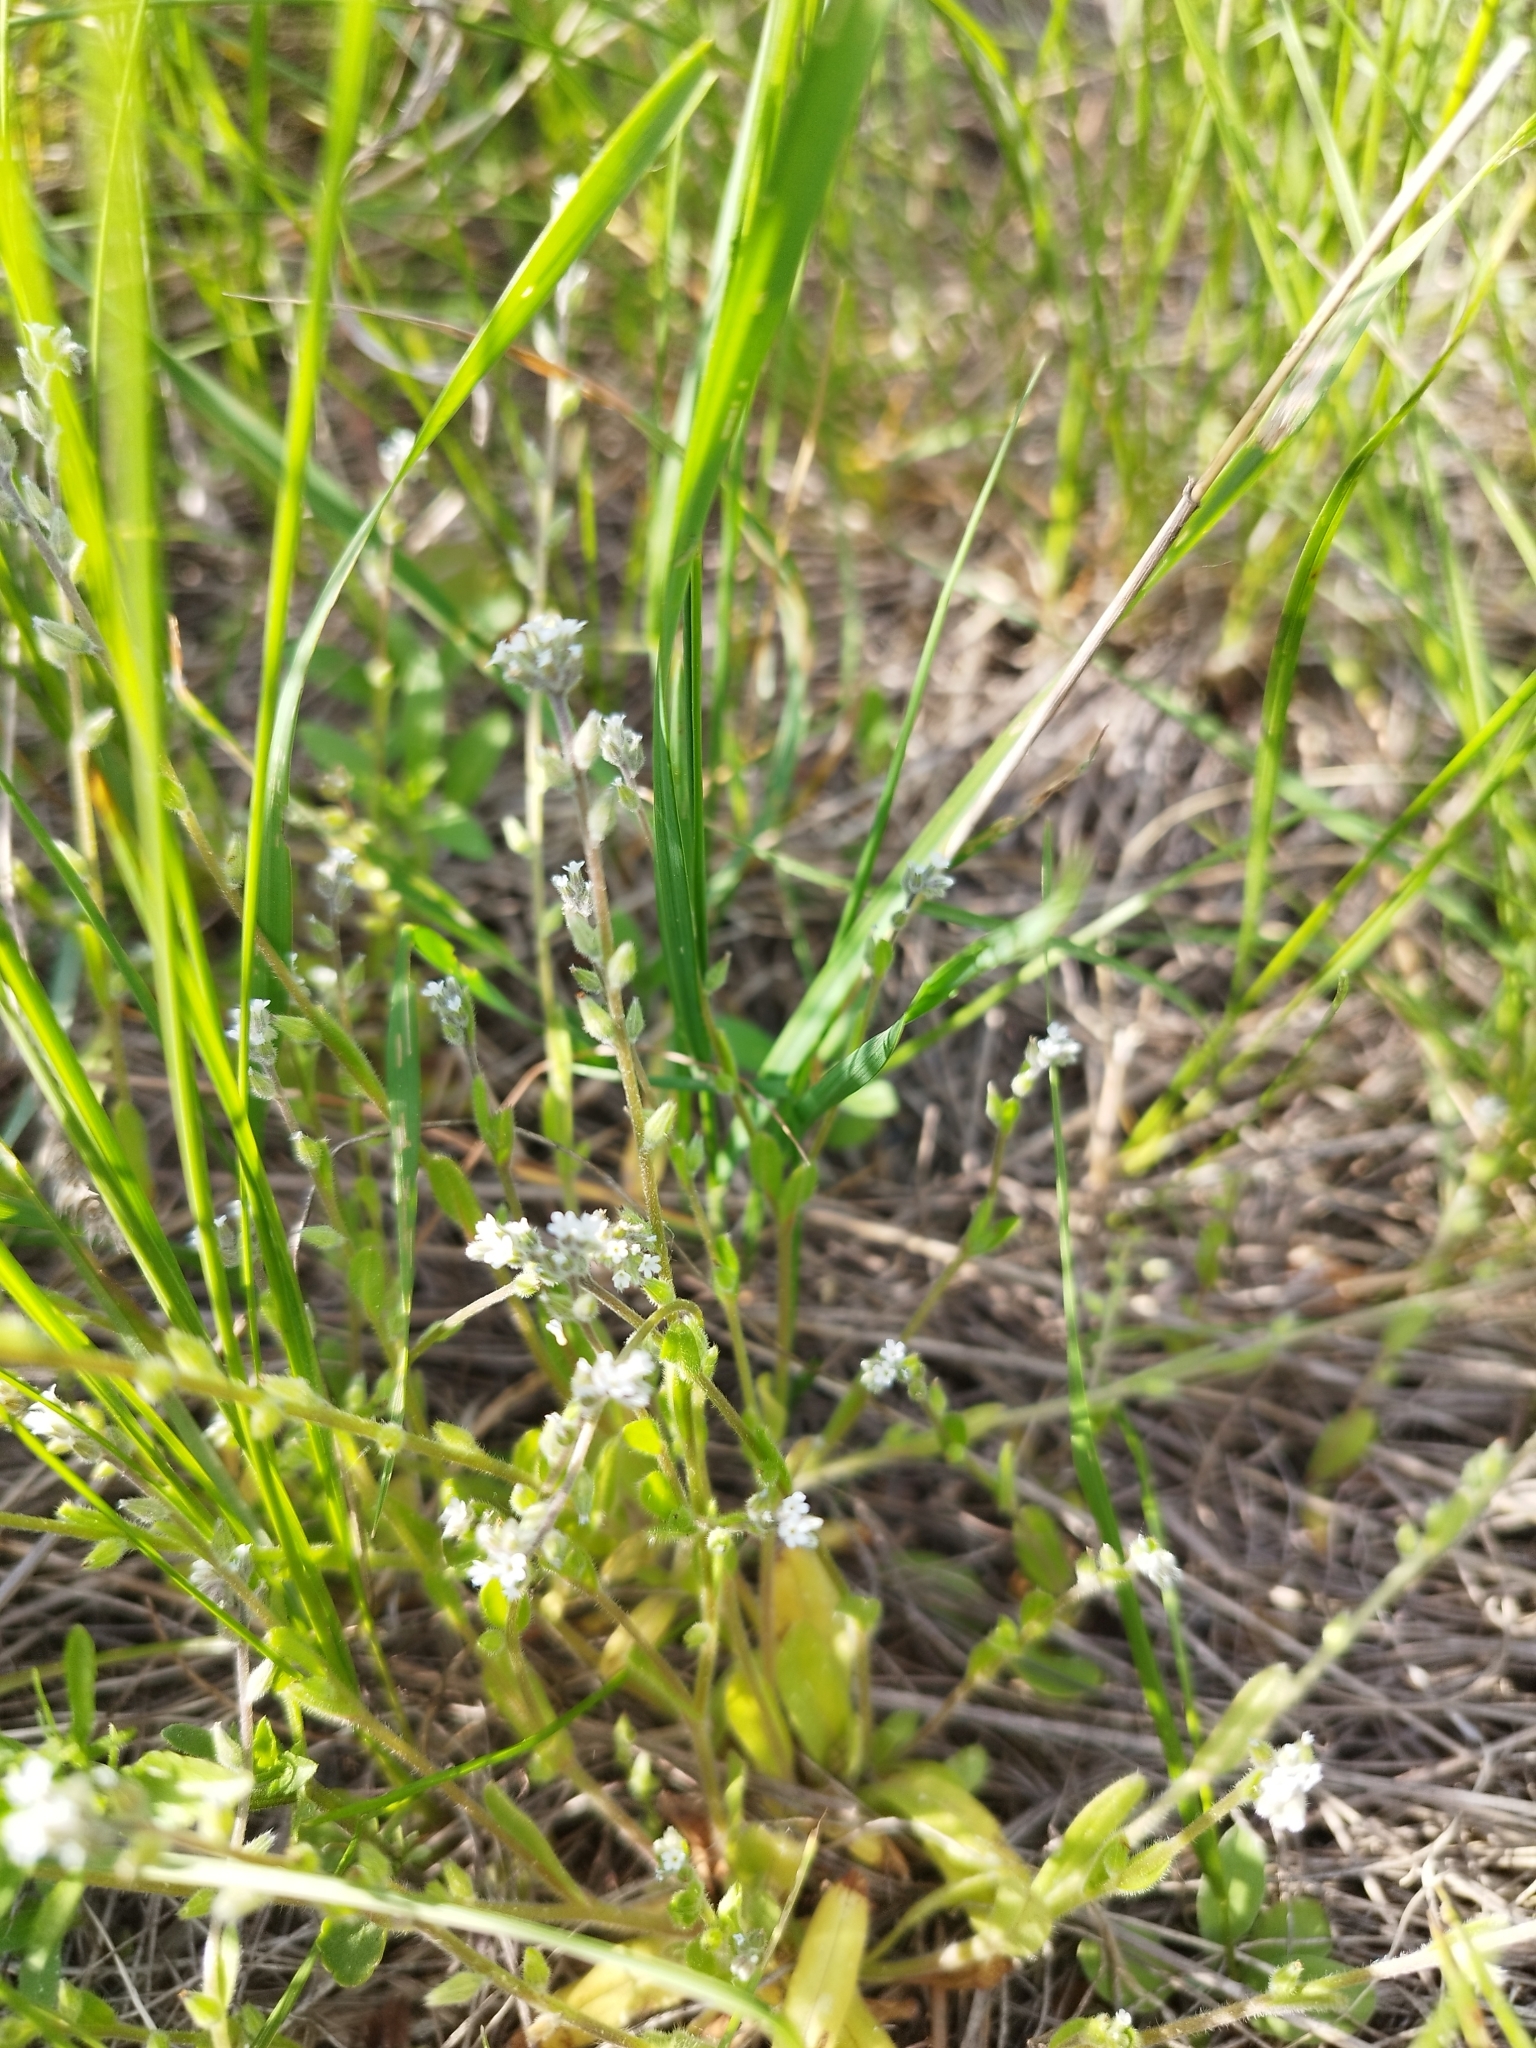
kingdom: Plantae
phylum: Tracheophyta
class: Magnoliopsida
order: Boraginales
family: Boraginaceae
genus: Myosotis
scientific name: Myosotis stricta
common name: Strict forget-me-not
